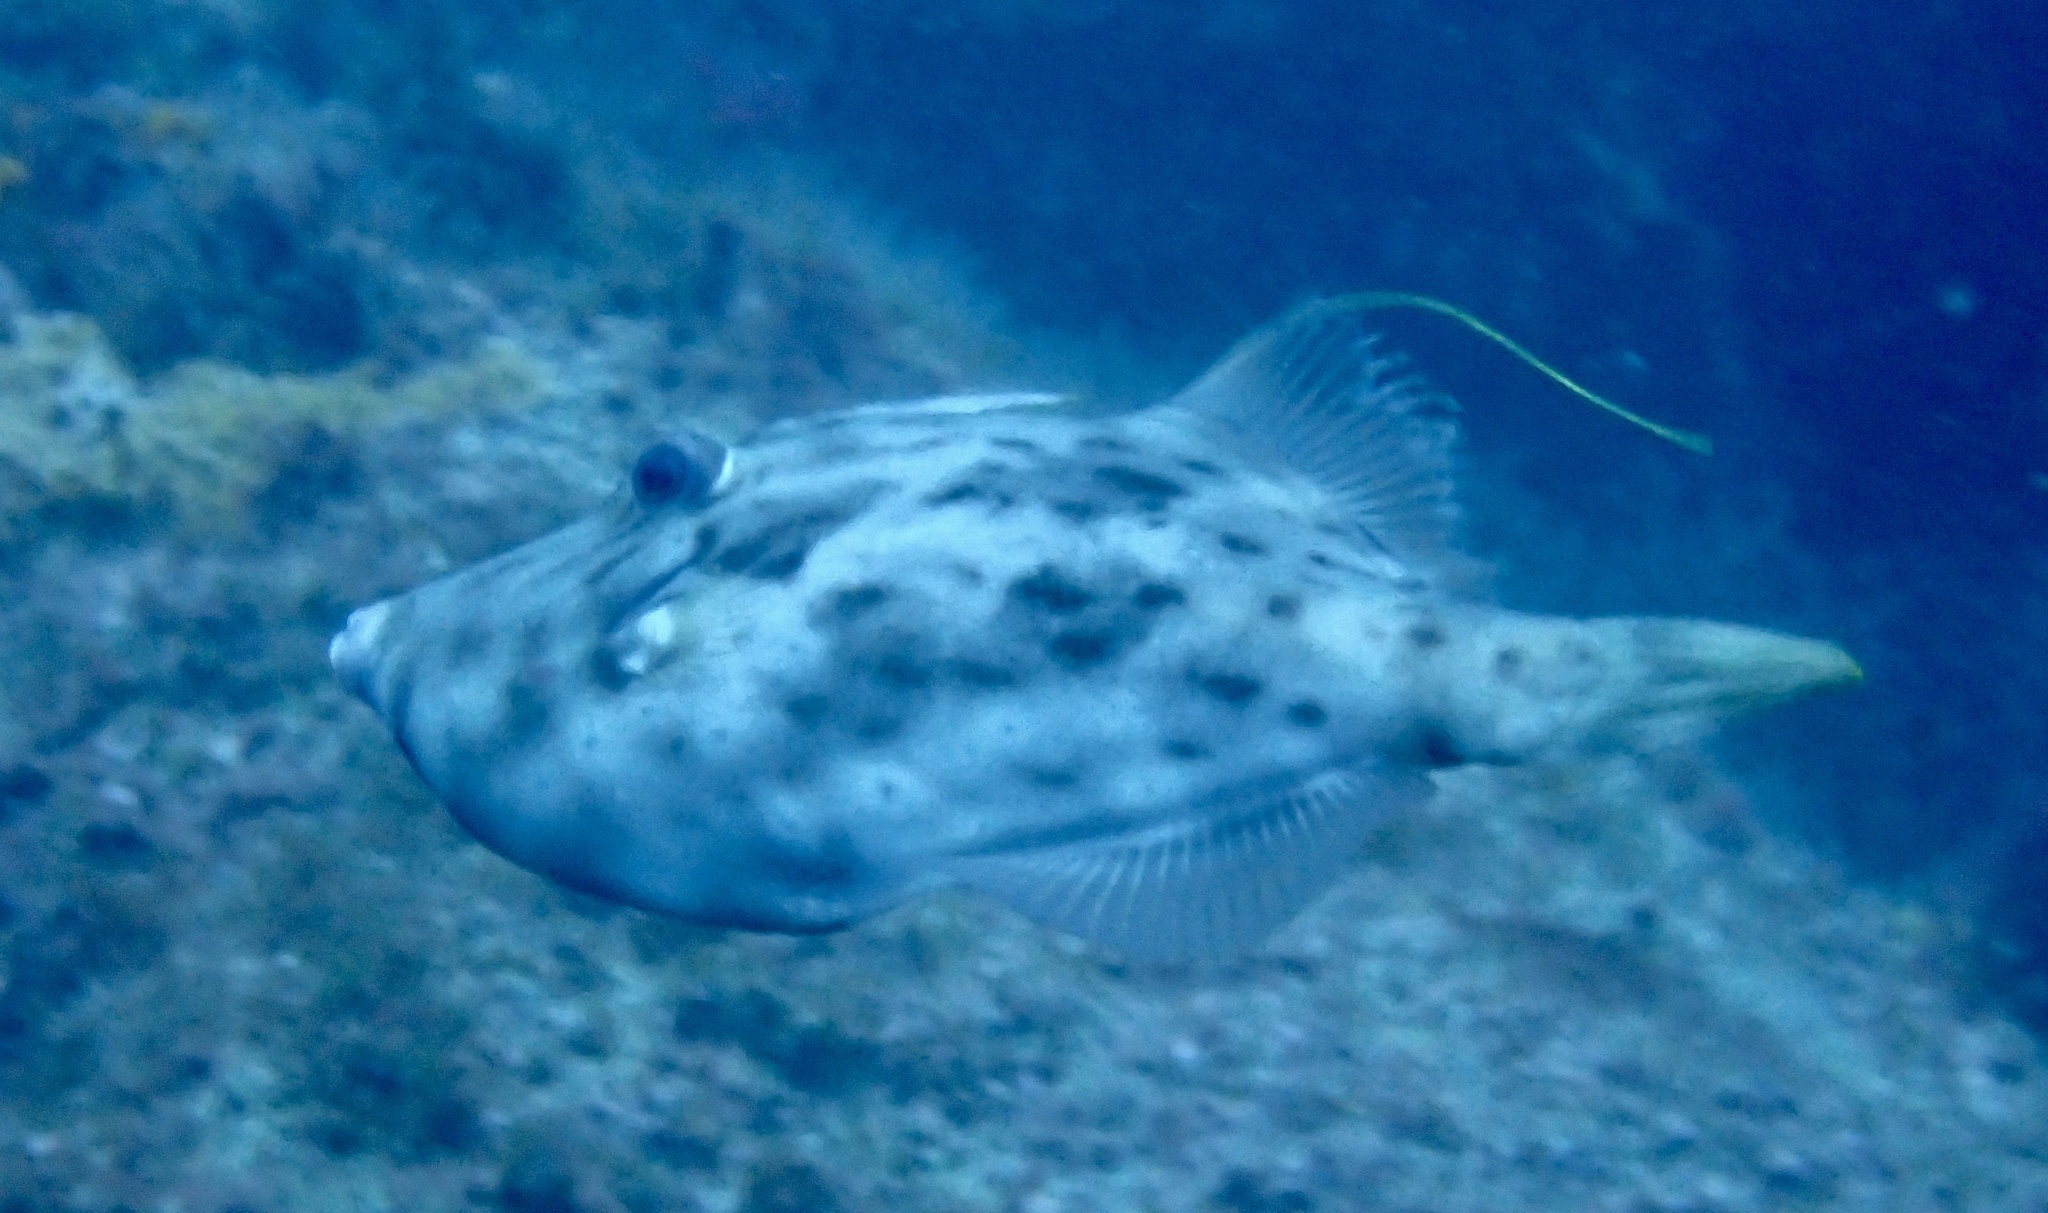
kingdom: Animalia
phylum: Chordata
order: Tetraodontiformes
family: Monacanthidae
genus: Stephanolepis
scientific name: Stephanolepis hispidus
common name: Planehead filefish
